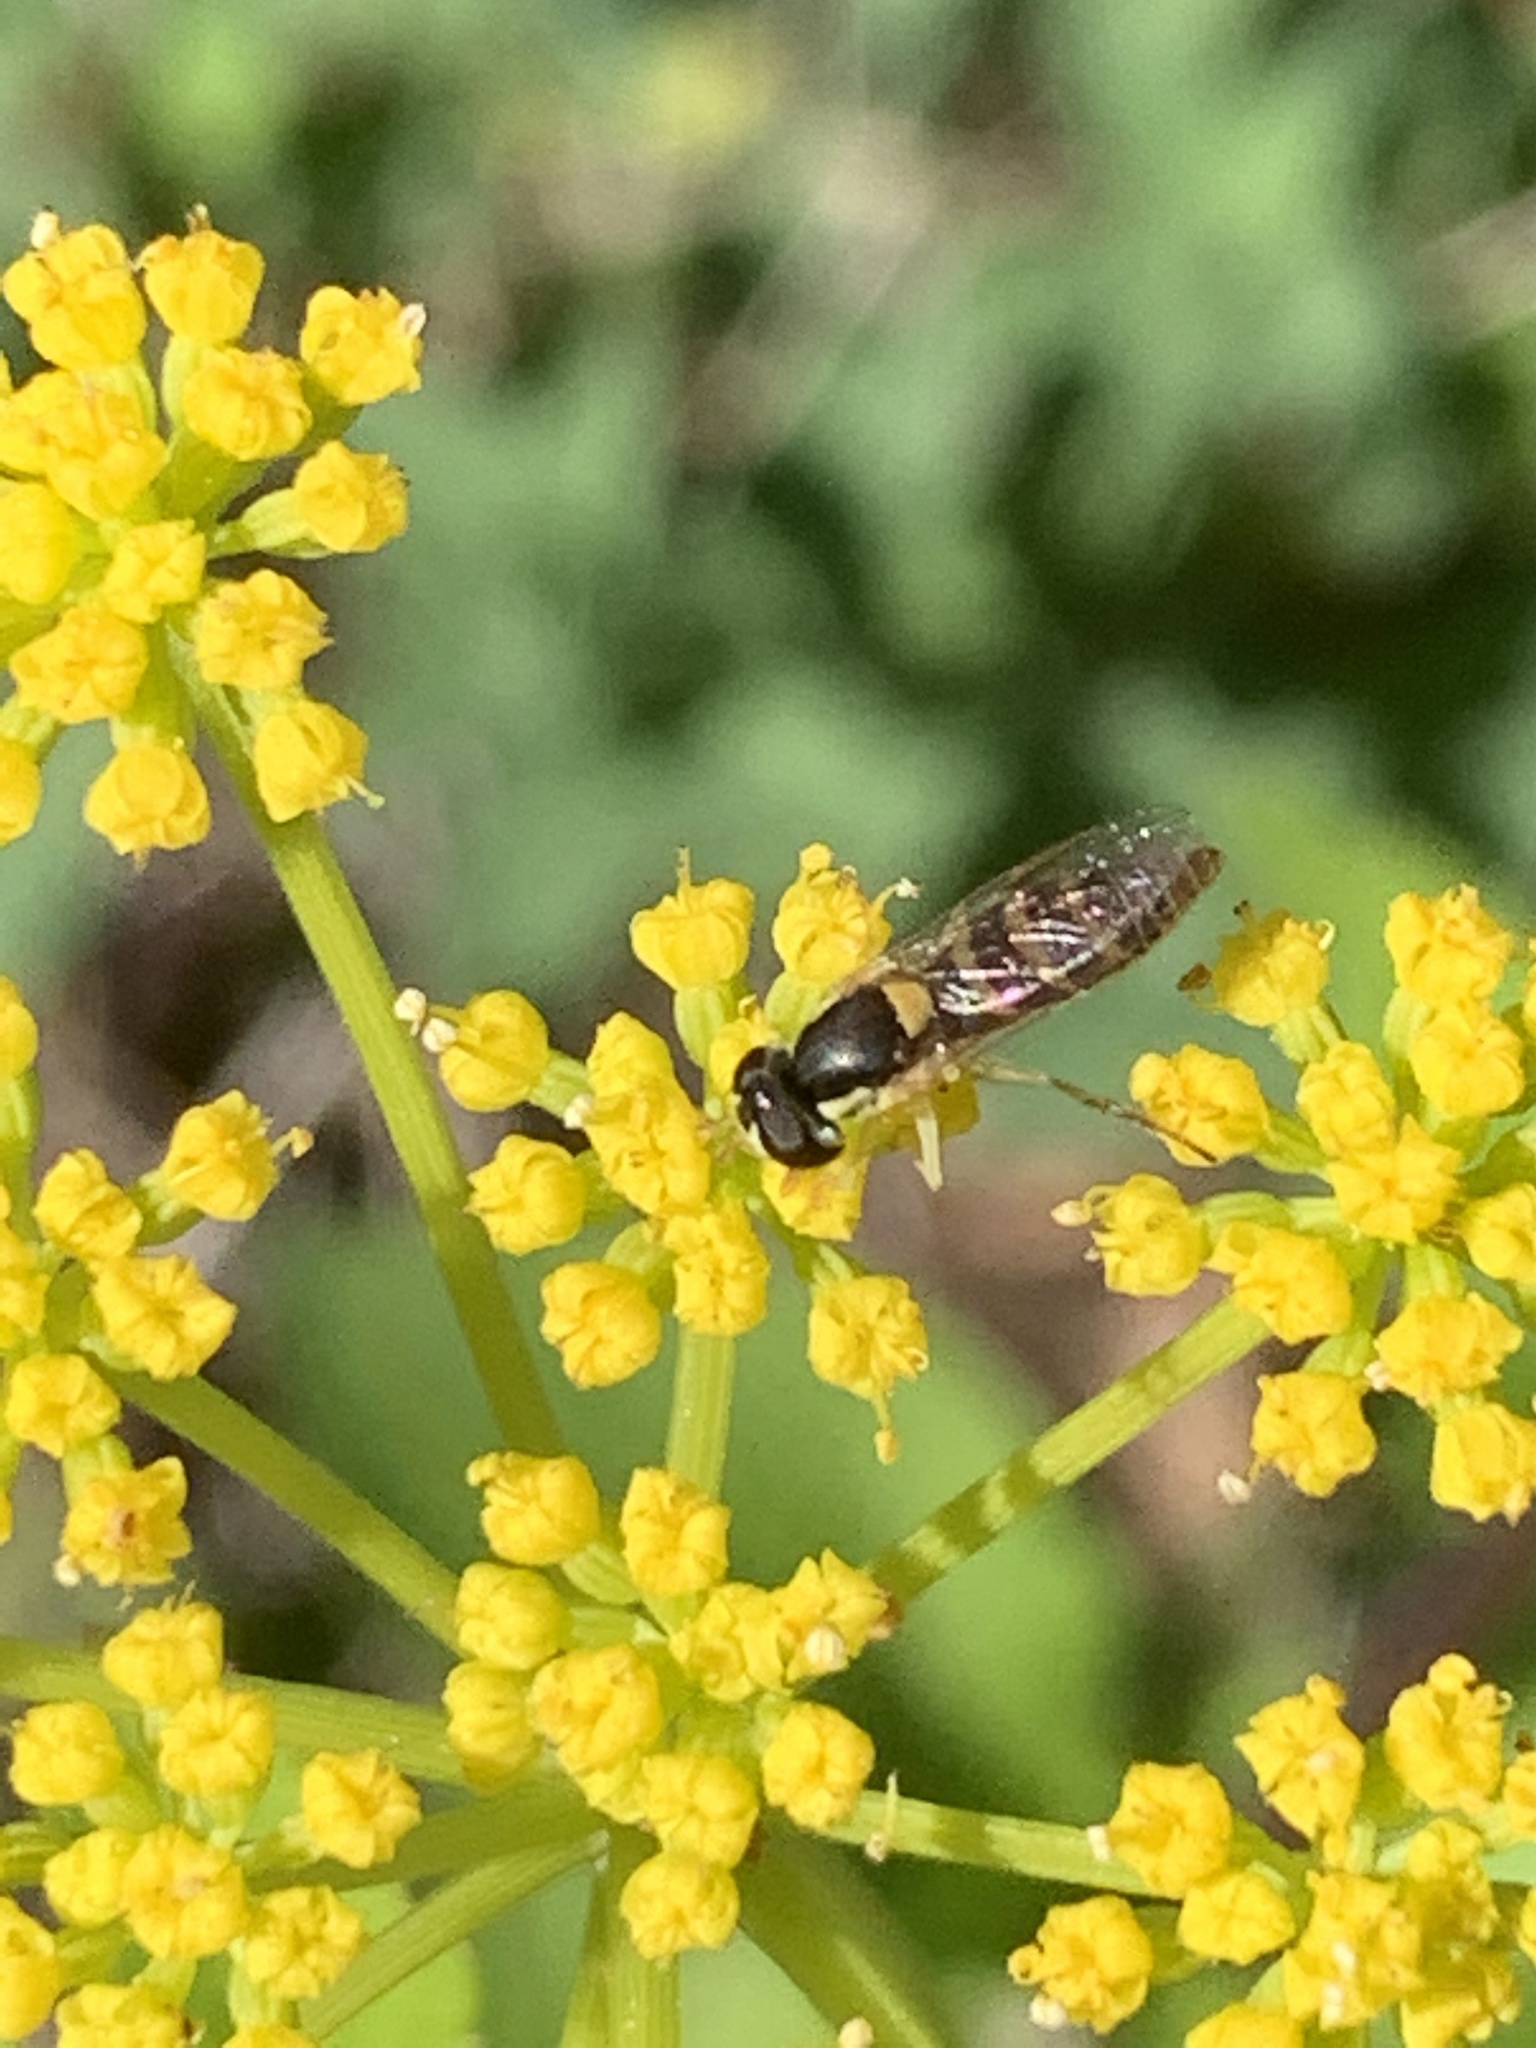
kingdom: Animalia
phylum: Arthropoda
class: Insecta
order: Diptera
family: Syrphidae
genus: Sphaerophoria
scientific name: Sphaerophoria contigua
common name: Tufted globetail
